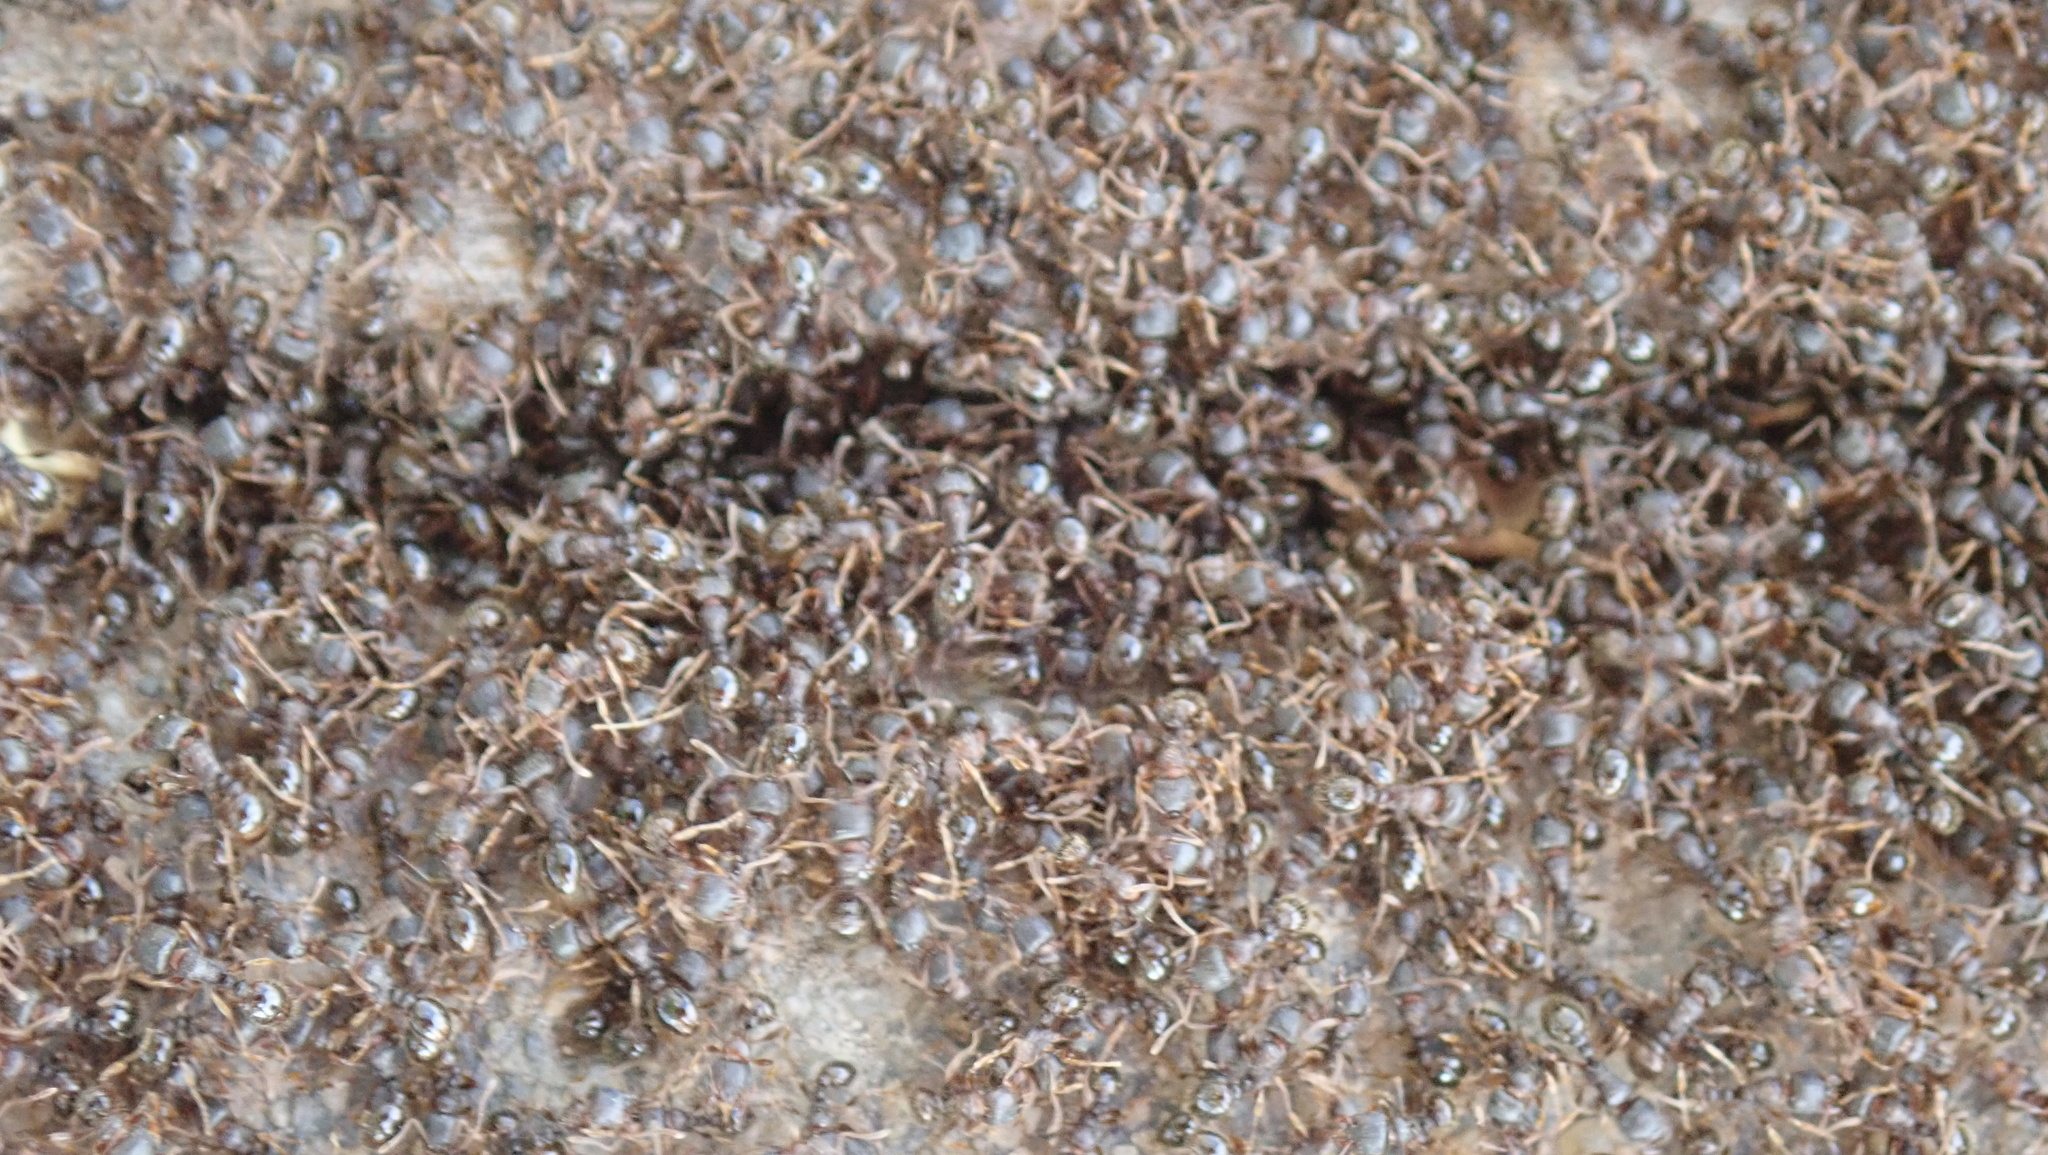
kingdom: Animalia
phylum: Arthropoda
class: Insecta
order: Hymenoptera
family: Formicidae
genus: Tetramorium
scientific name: Tetramorium immigrans
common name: Pavement ant
